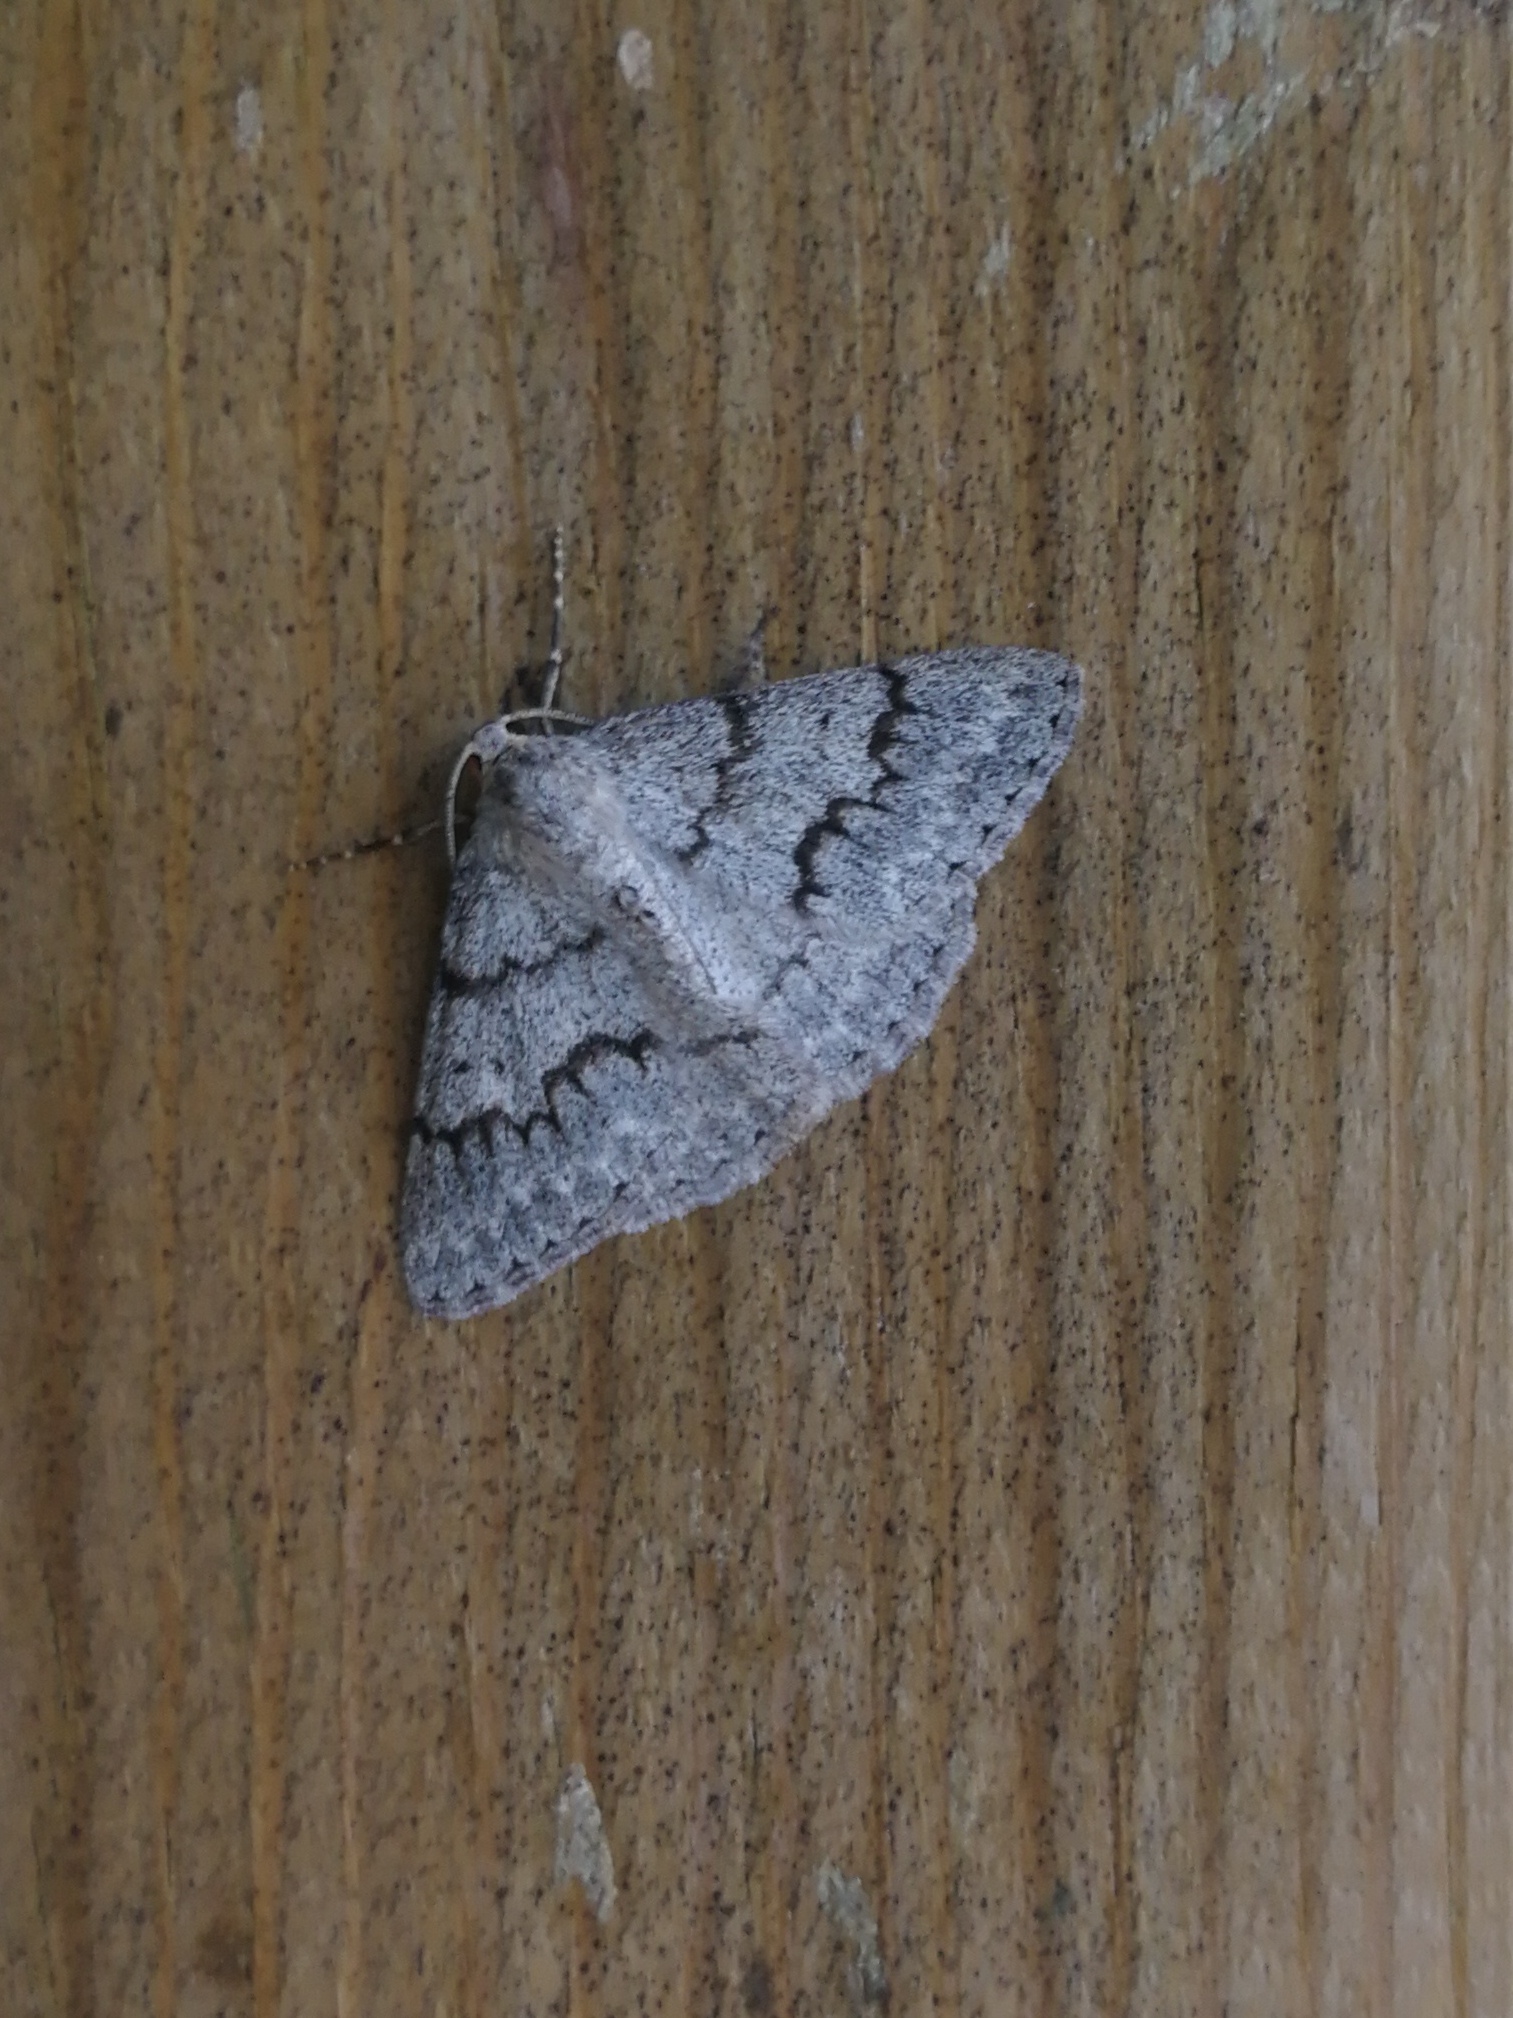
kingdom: Animalia
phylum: Arthropoda
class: Insecta
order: Lepidoptera
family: Geometridae
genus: Pseudoterpna
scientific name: Pseudoterpna coronillaria
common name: Jersey emerald
